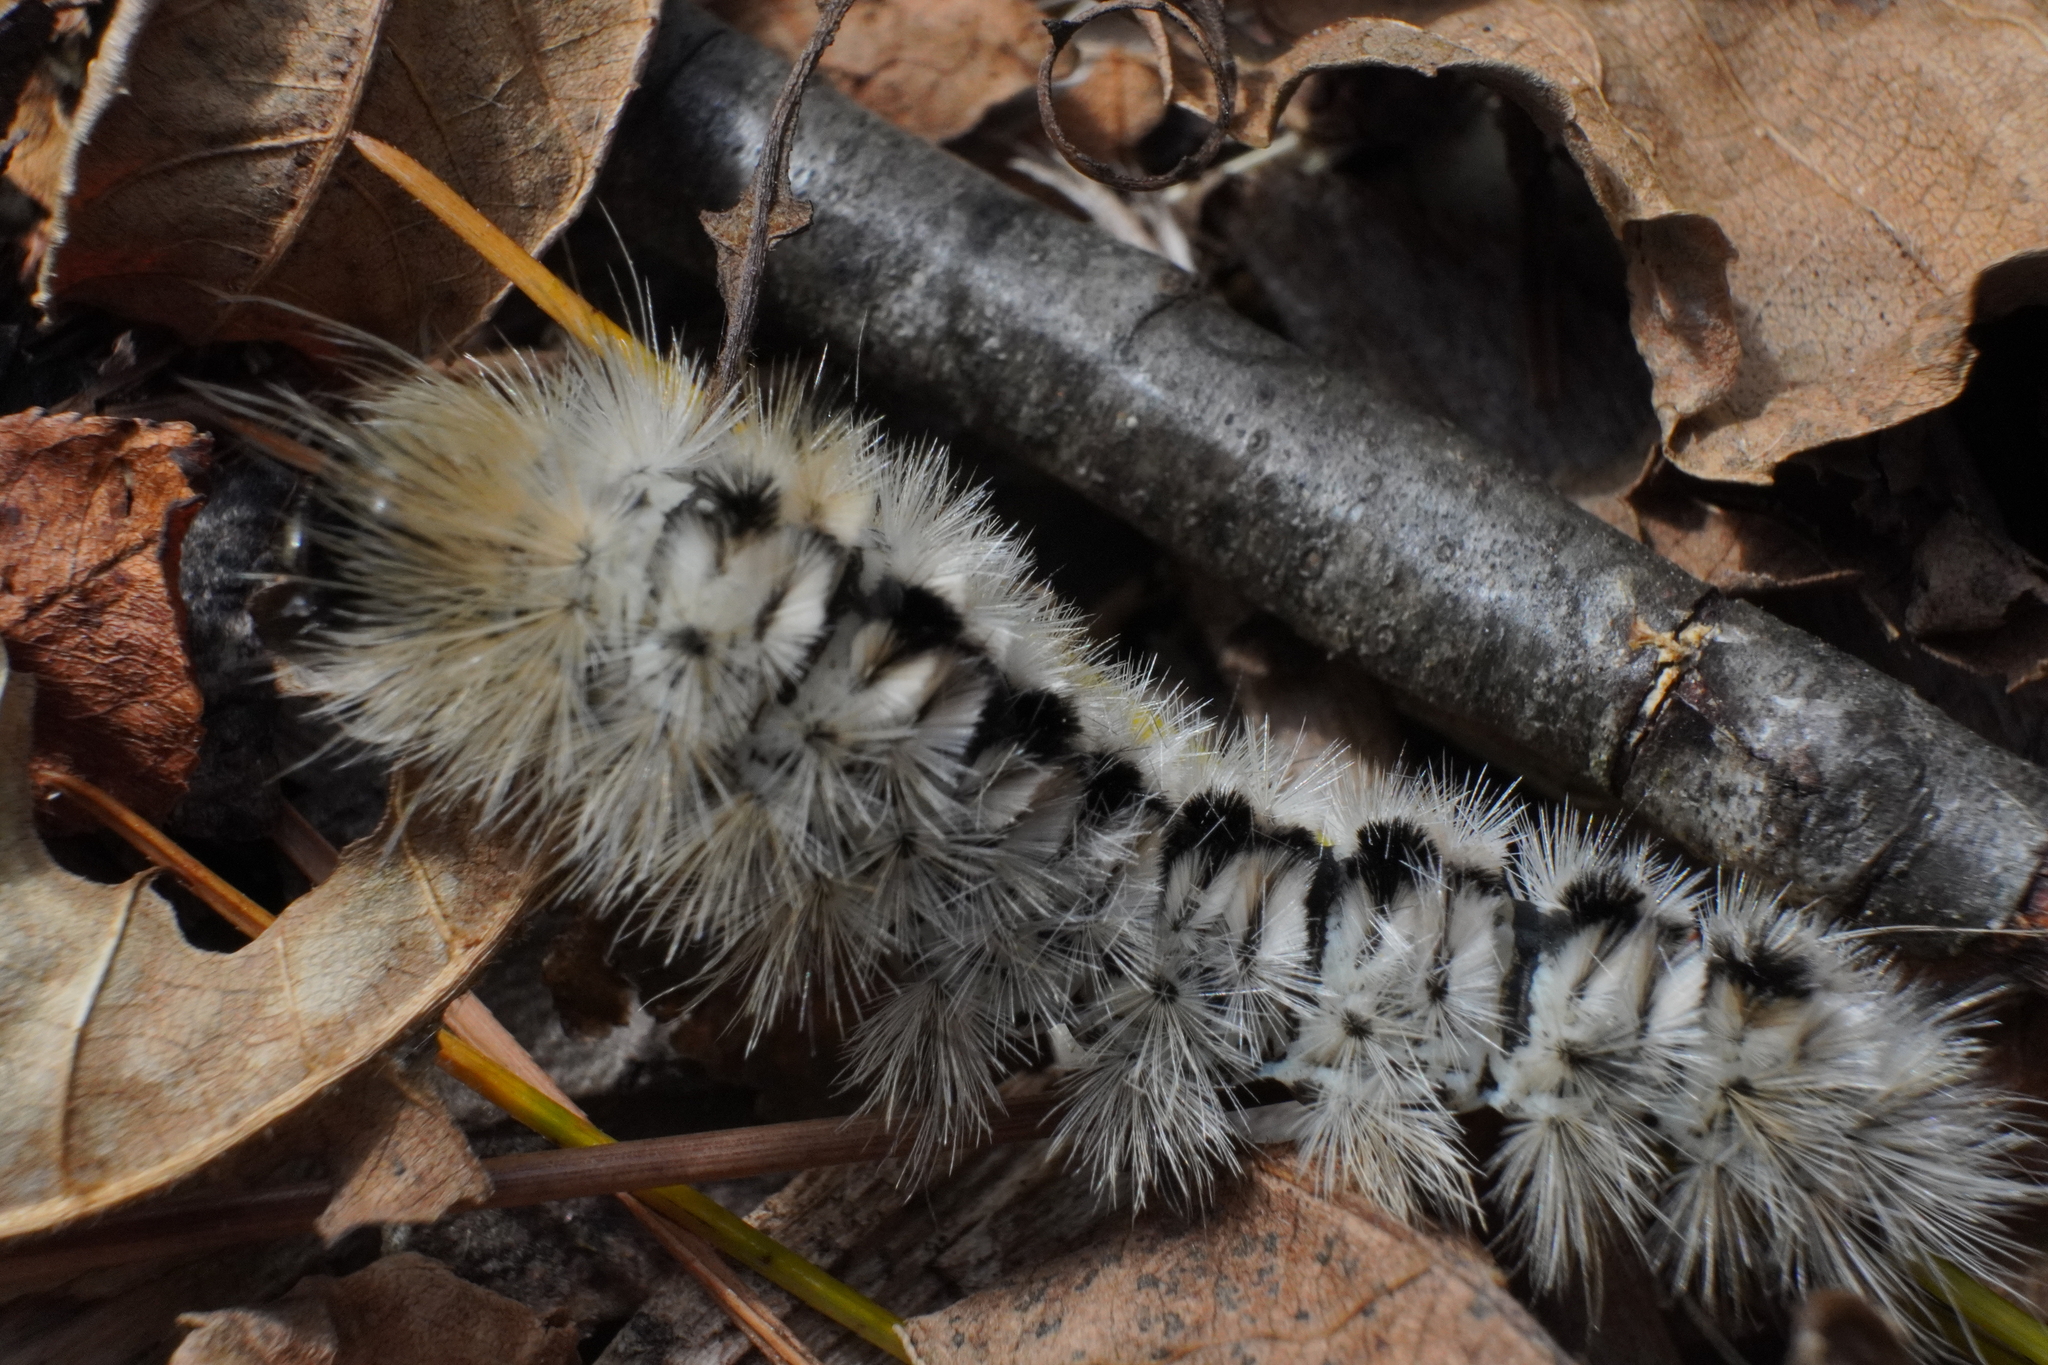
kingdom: Animalia
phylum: Arthropoda
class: Insecta
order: Lepidoptera
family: Erebidae
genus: Lophocampa
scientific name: Lophocampa caryae
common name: Hickory tussock moth
